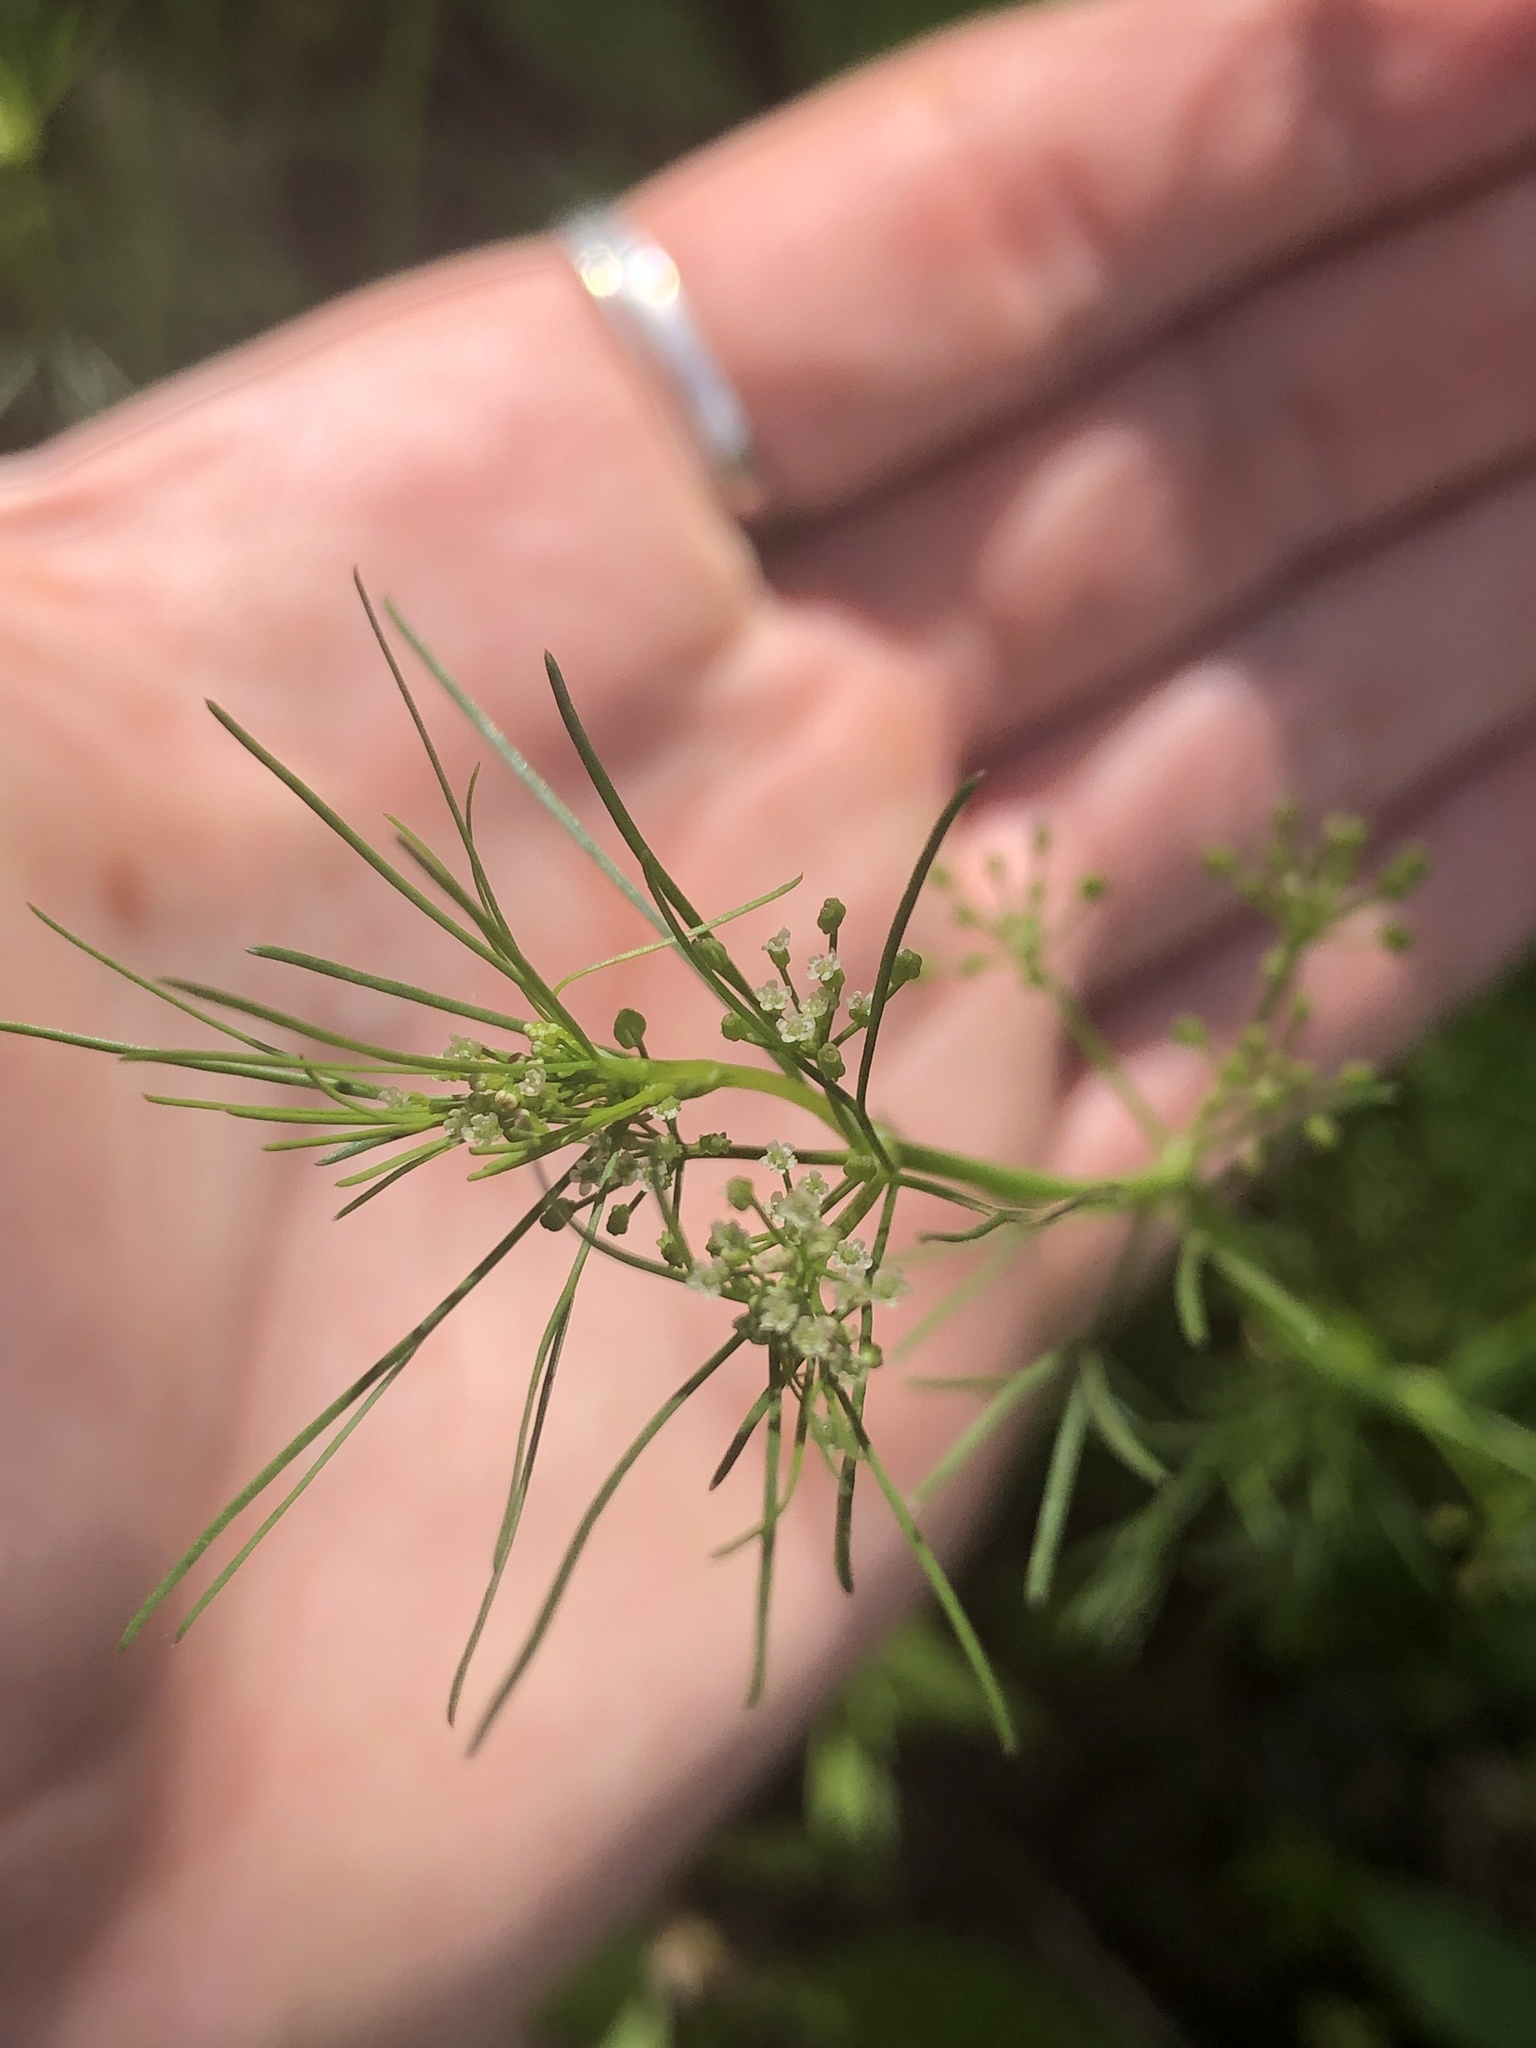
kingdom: Plantae
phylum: Tracheophyta
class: Magnoliopsida
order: Apiales
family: Apiaceae
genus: Cyclospermum
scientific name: Cyclospermum leptophyllum
